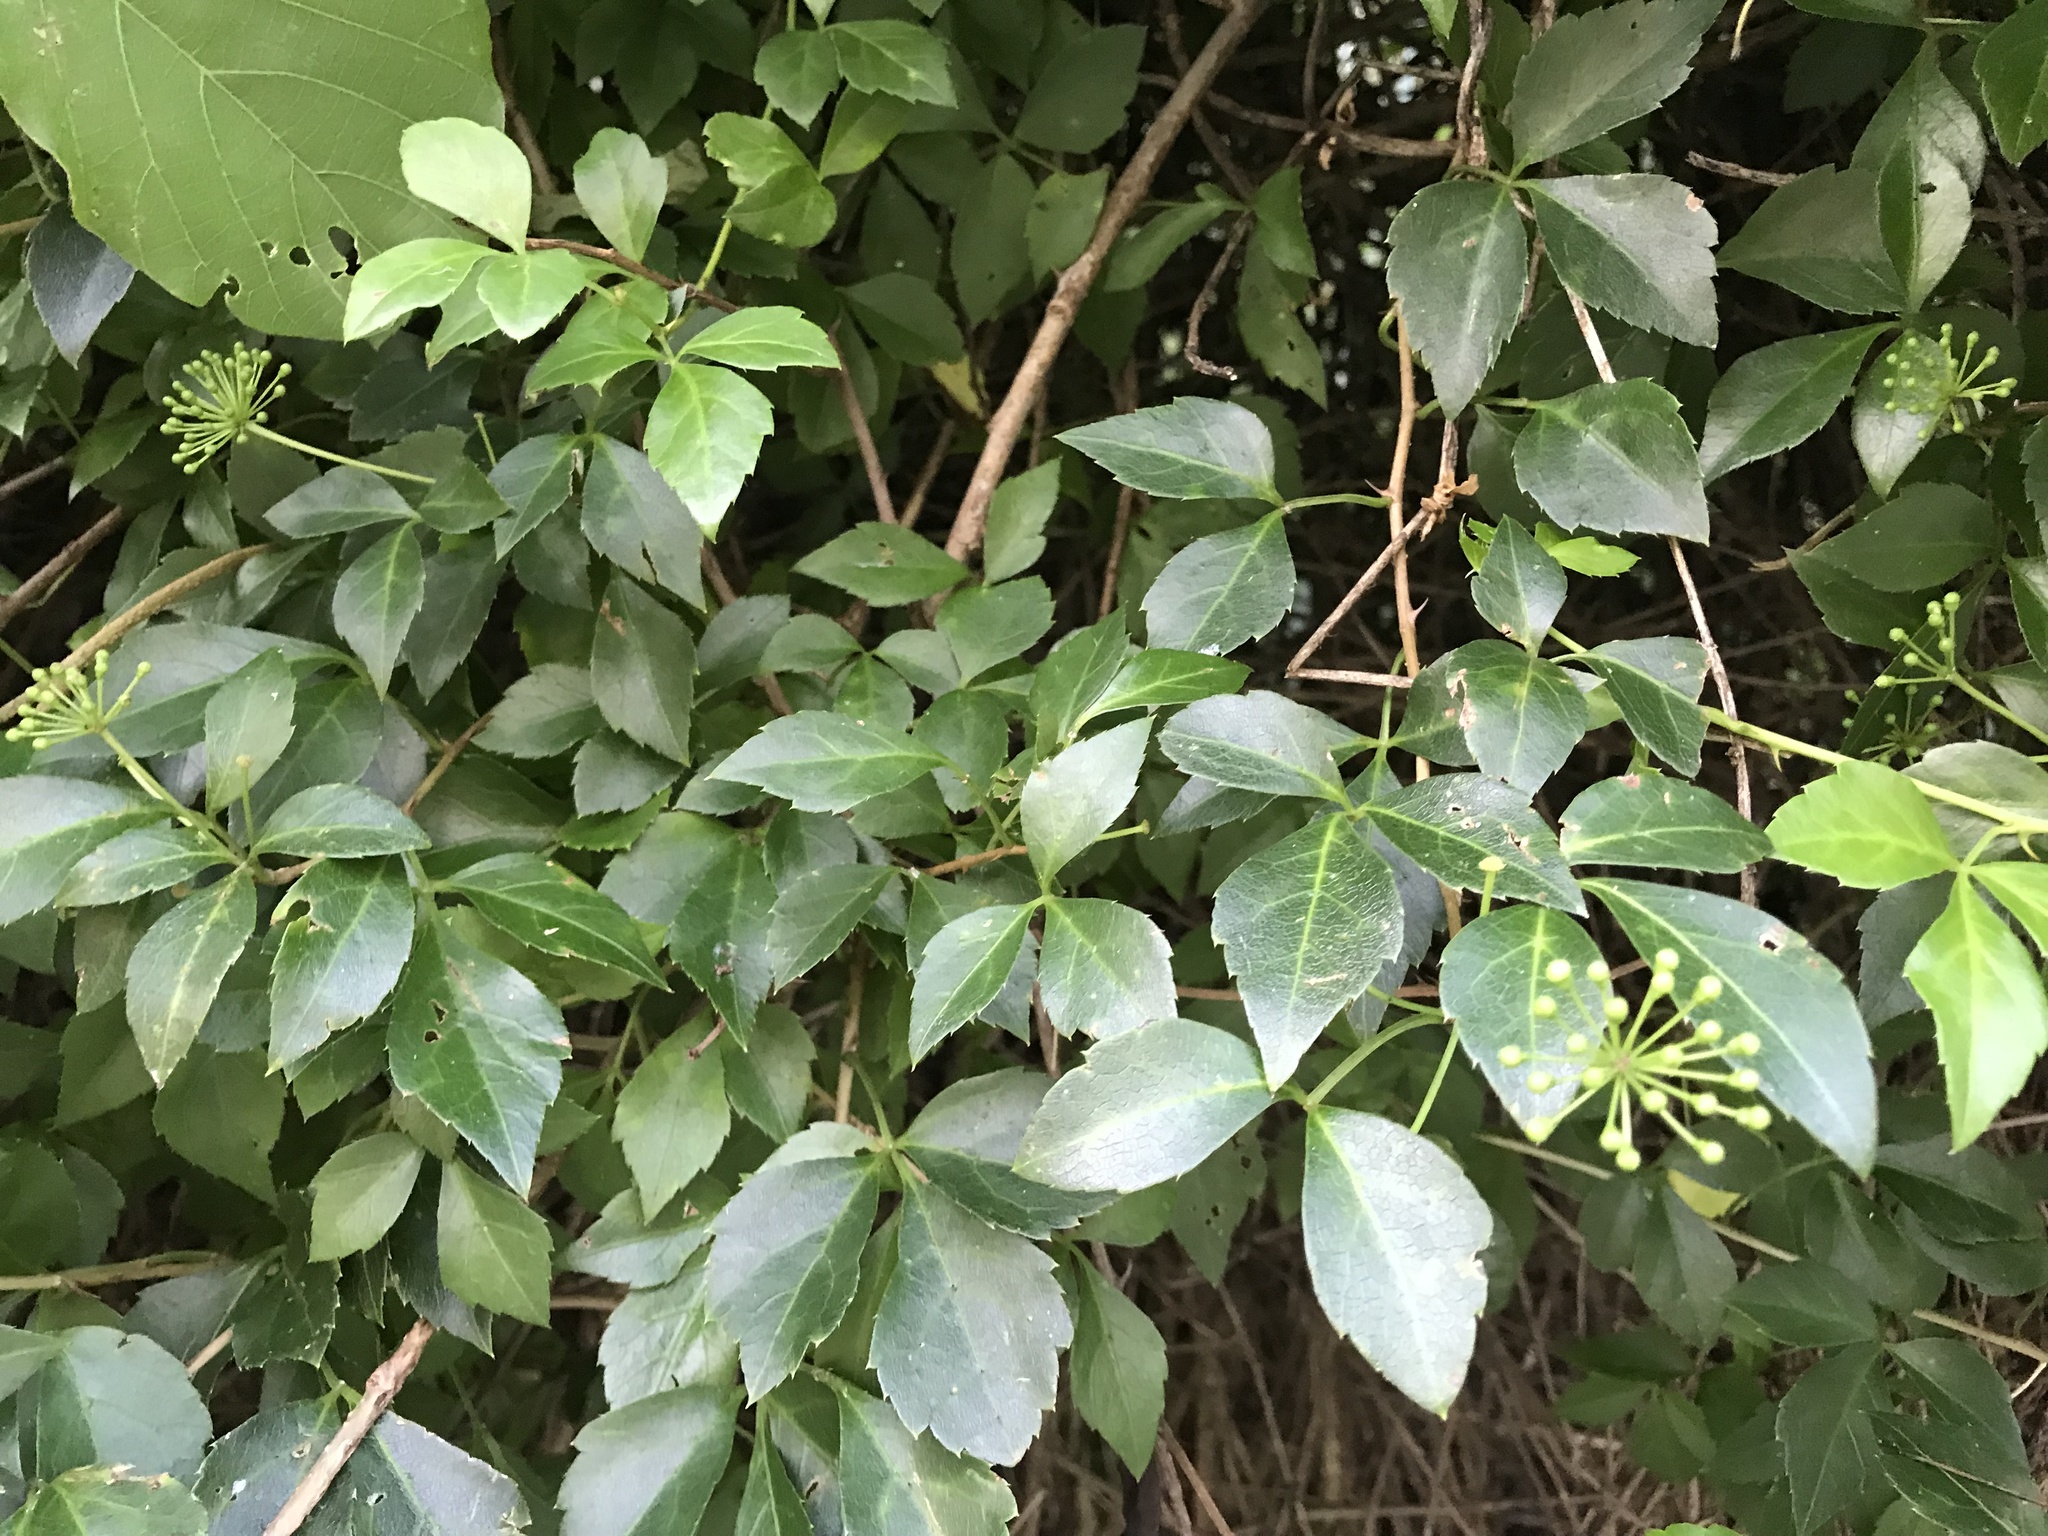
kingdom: Plantae
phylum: Tracheophyta
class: Magnoliopsida
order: Apiales
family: Araliaceae
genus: Eleutherococcus
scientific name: Eleutherococcus trifoliatus
